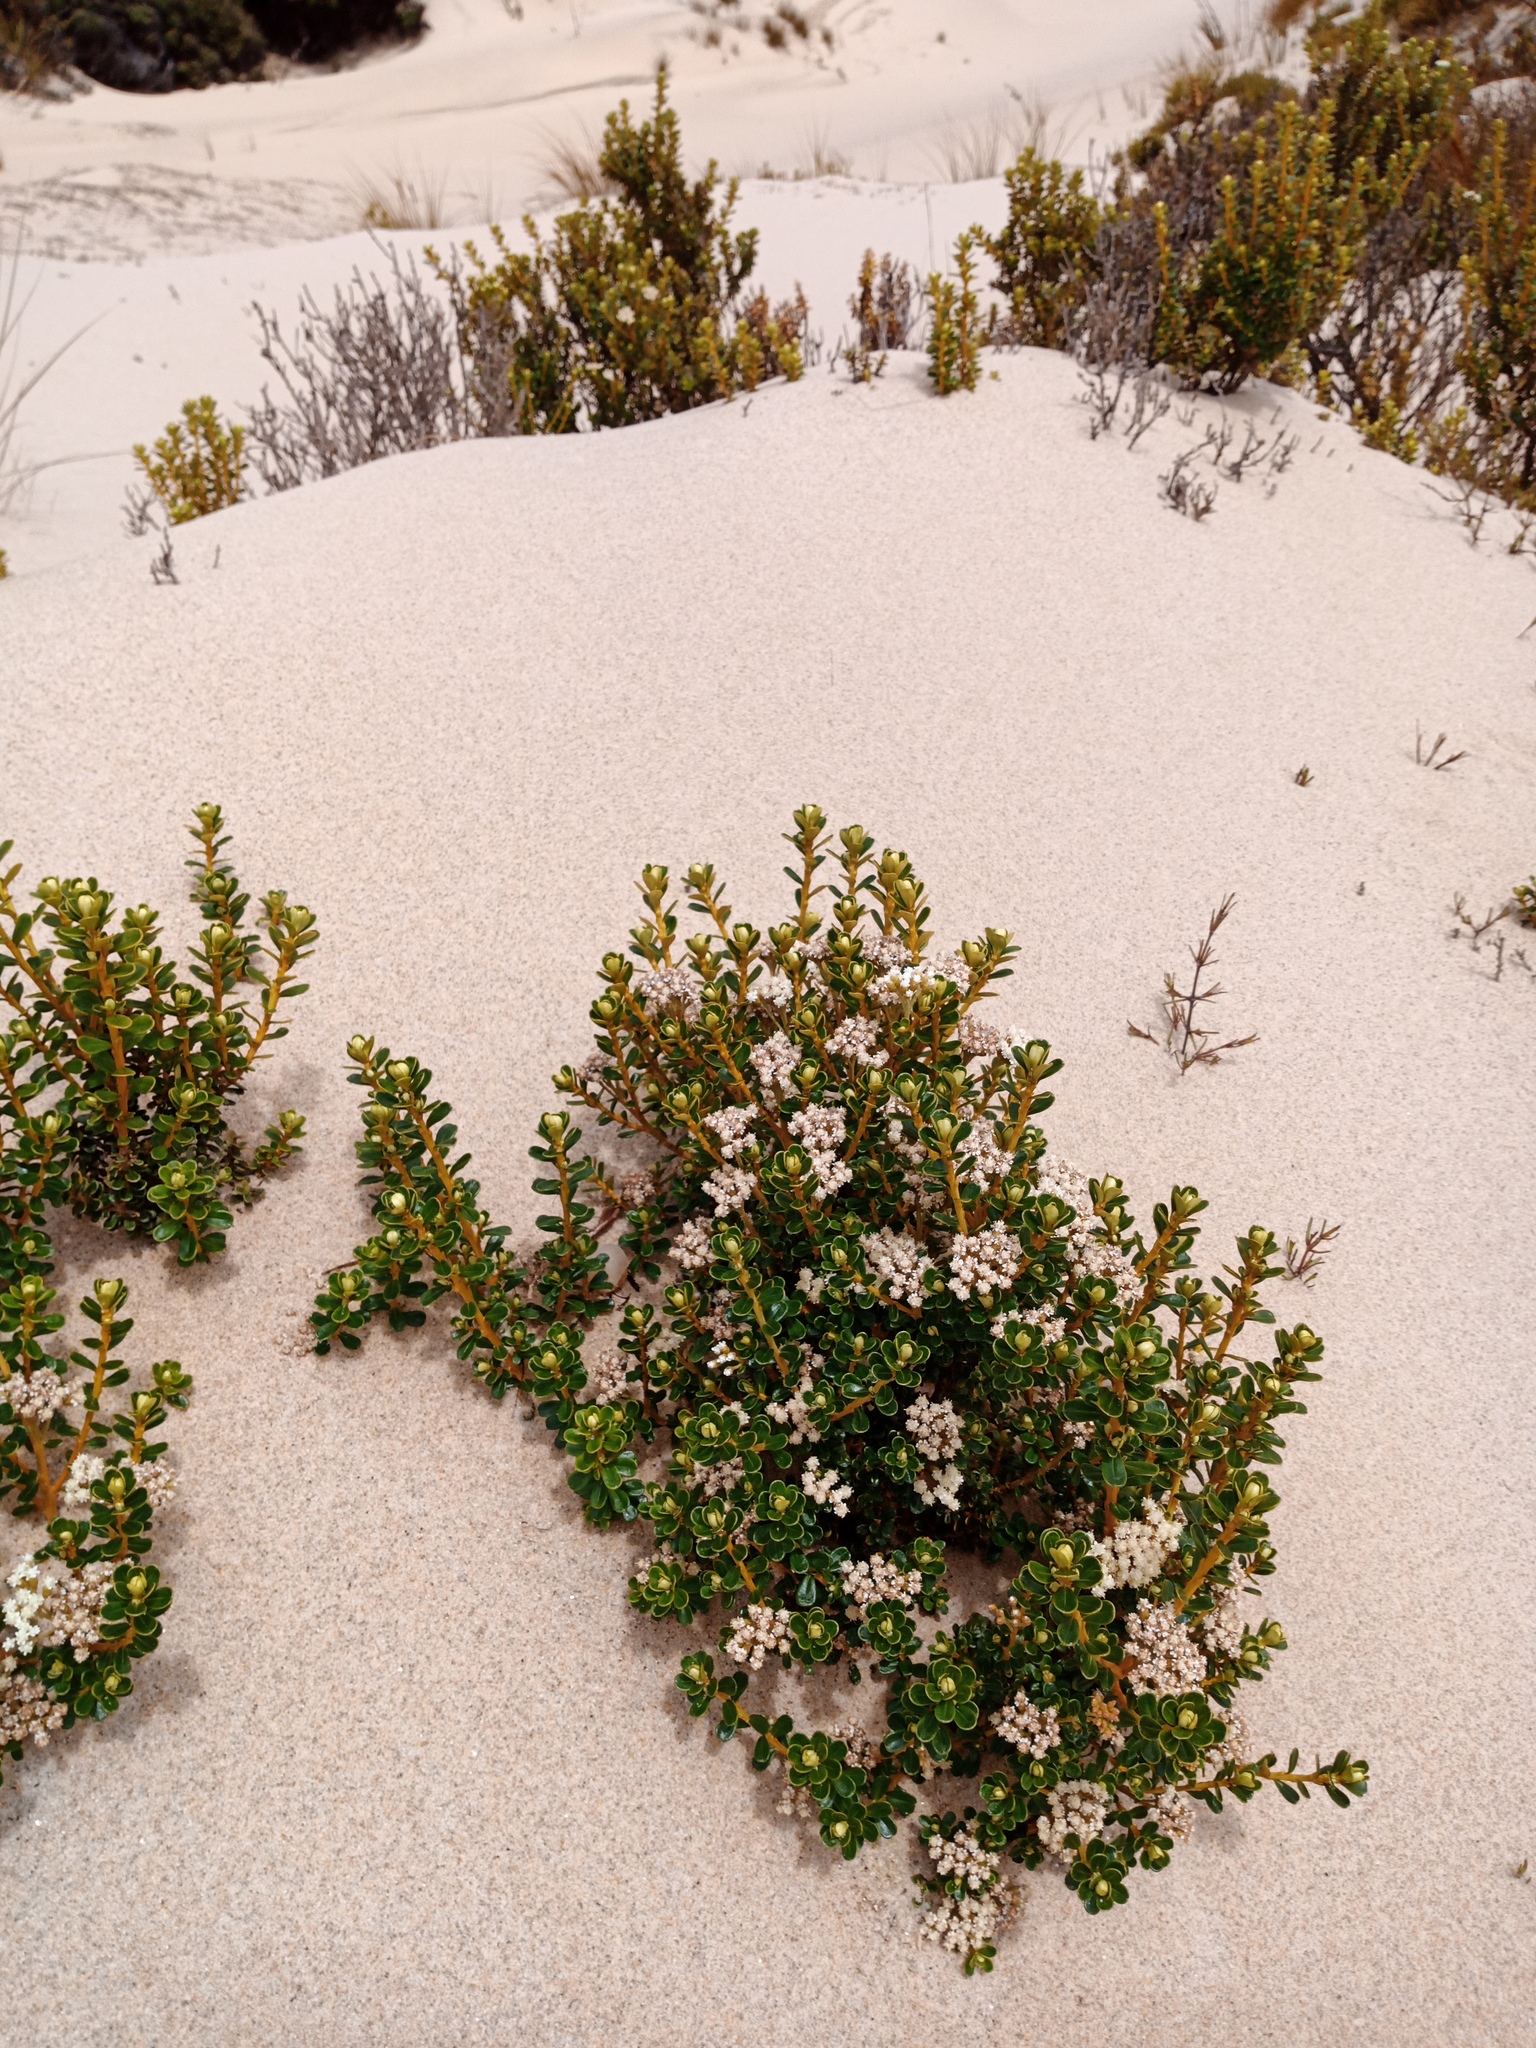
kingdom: Plantae
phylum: Tracheophyta
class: Magnoliopsida
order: Asterales
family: Asteraceae
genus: Ozothamnus
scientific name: Ozothamnus leptophyllus
